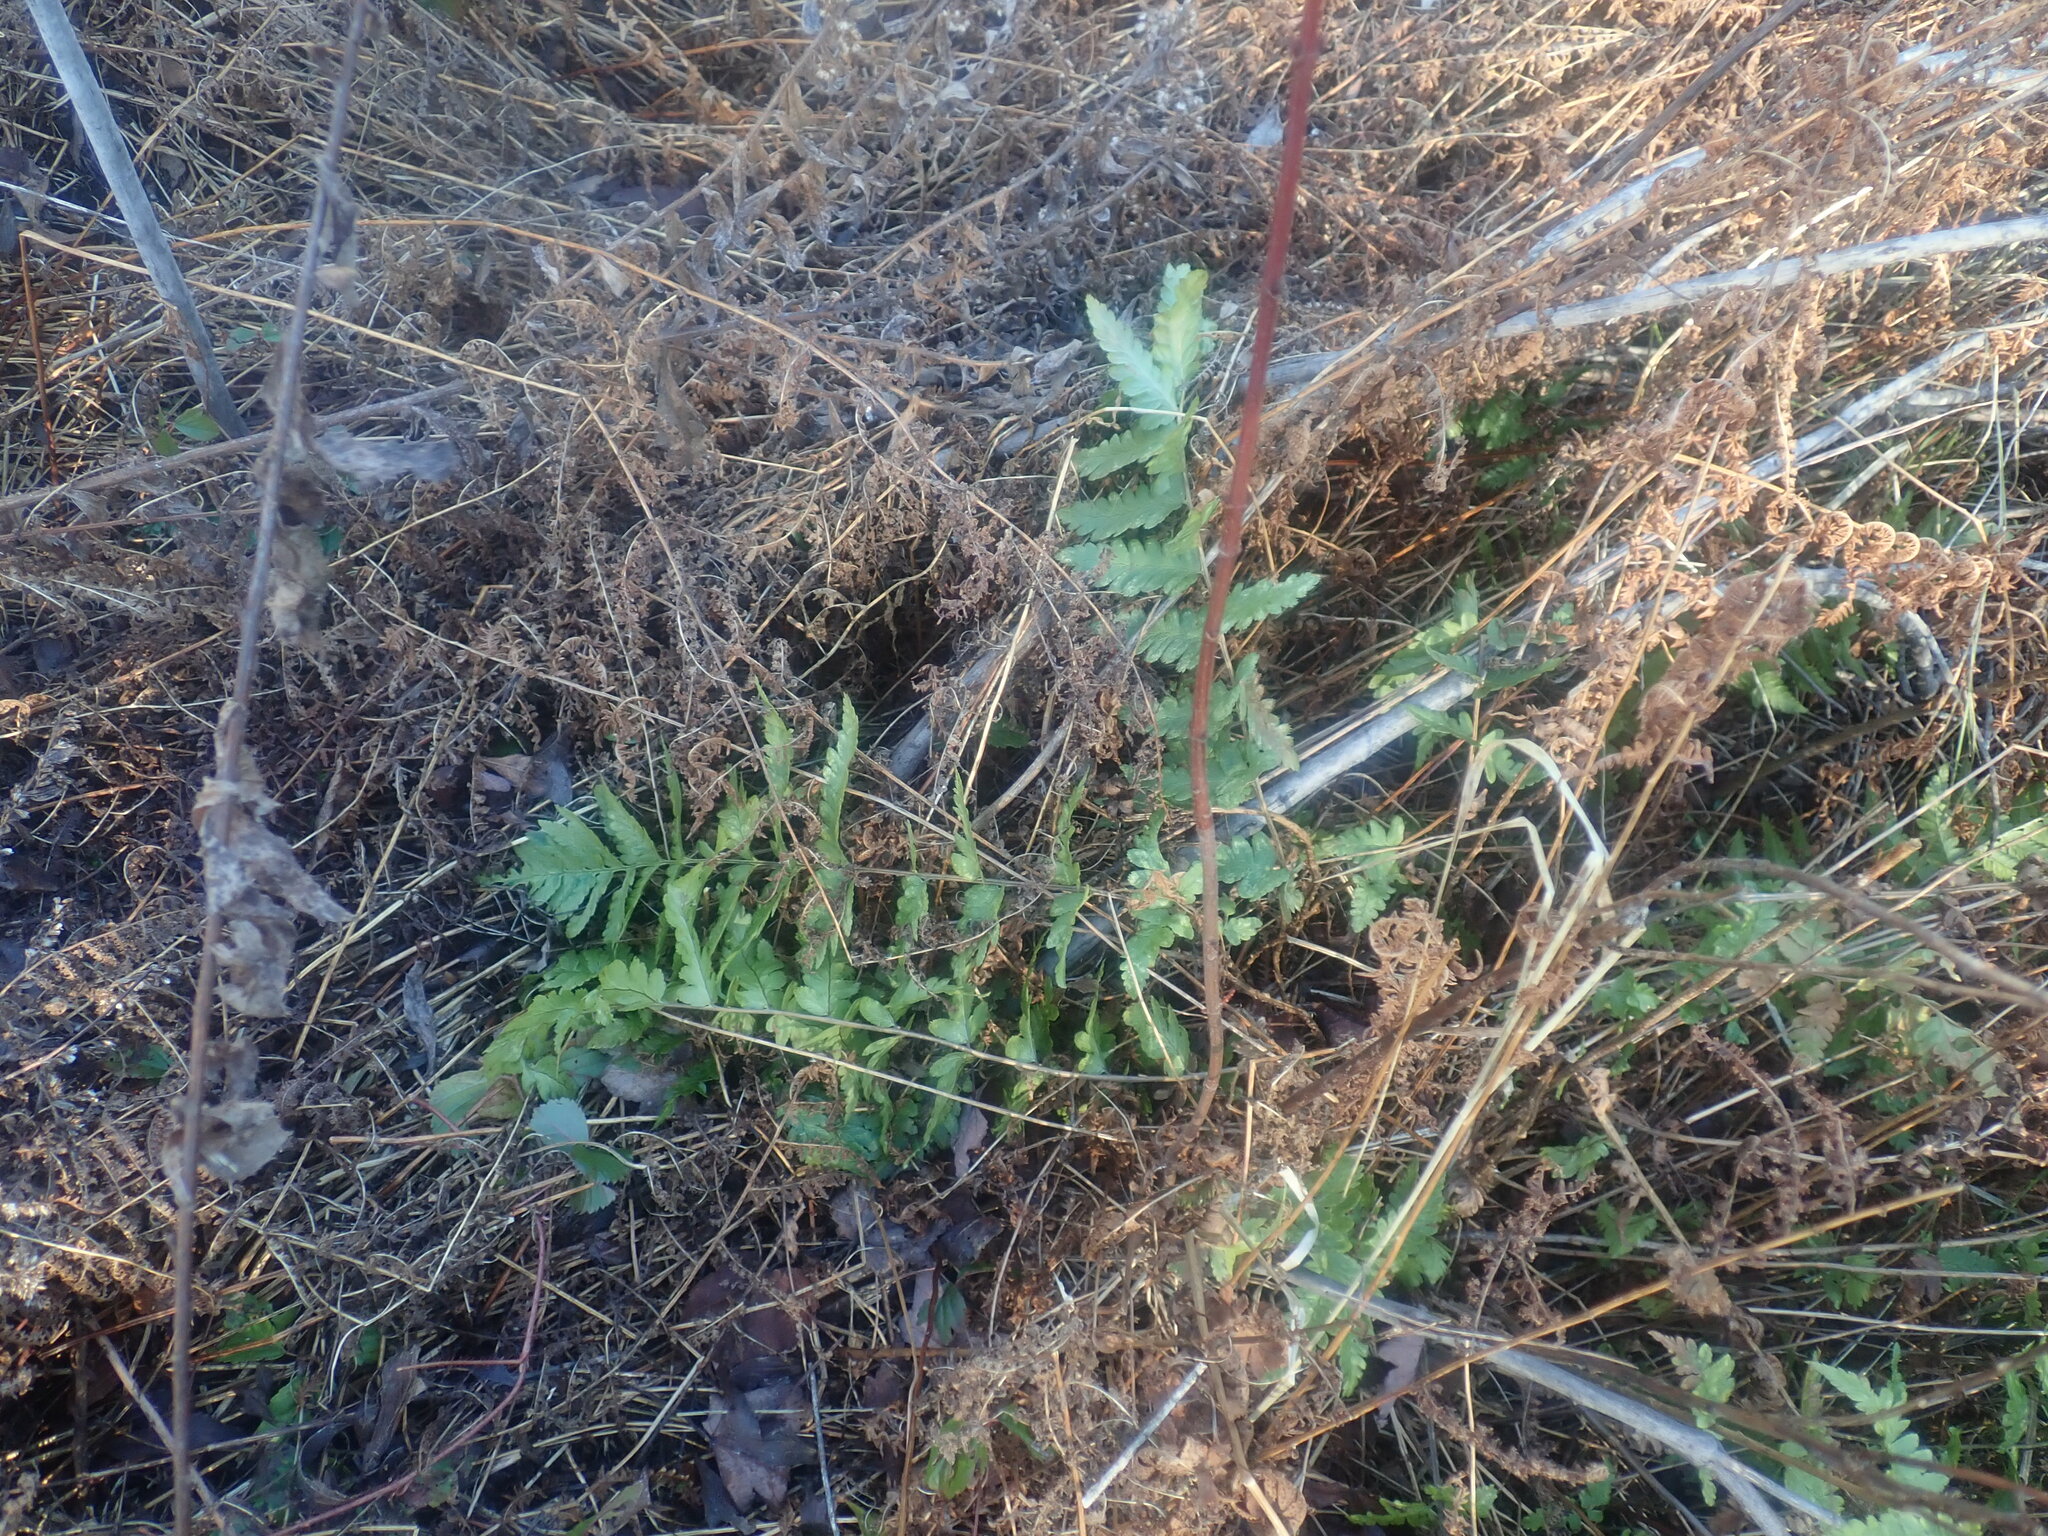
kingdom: Plantae
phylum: Tracheophyta
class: Polypodiopsida
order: Polypodiales
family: Dryopteridaceae
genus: Dryopteris
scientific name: Dryopteris cristata
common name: Crested wood fern
